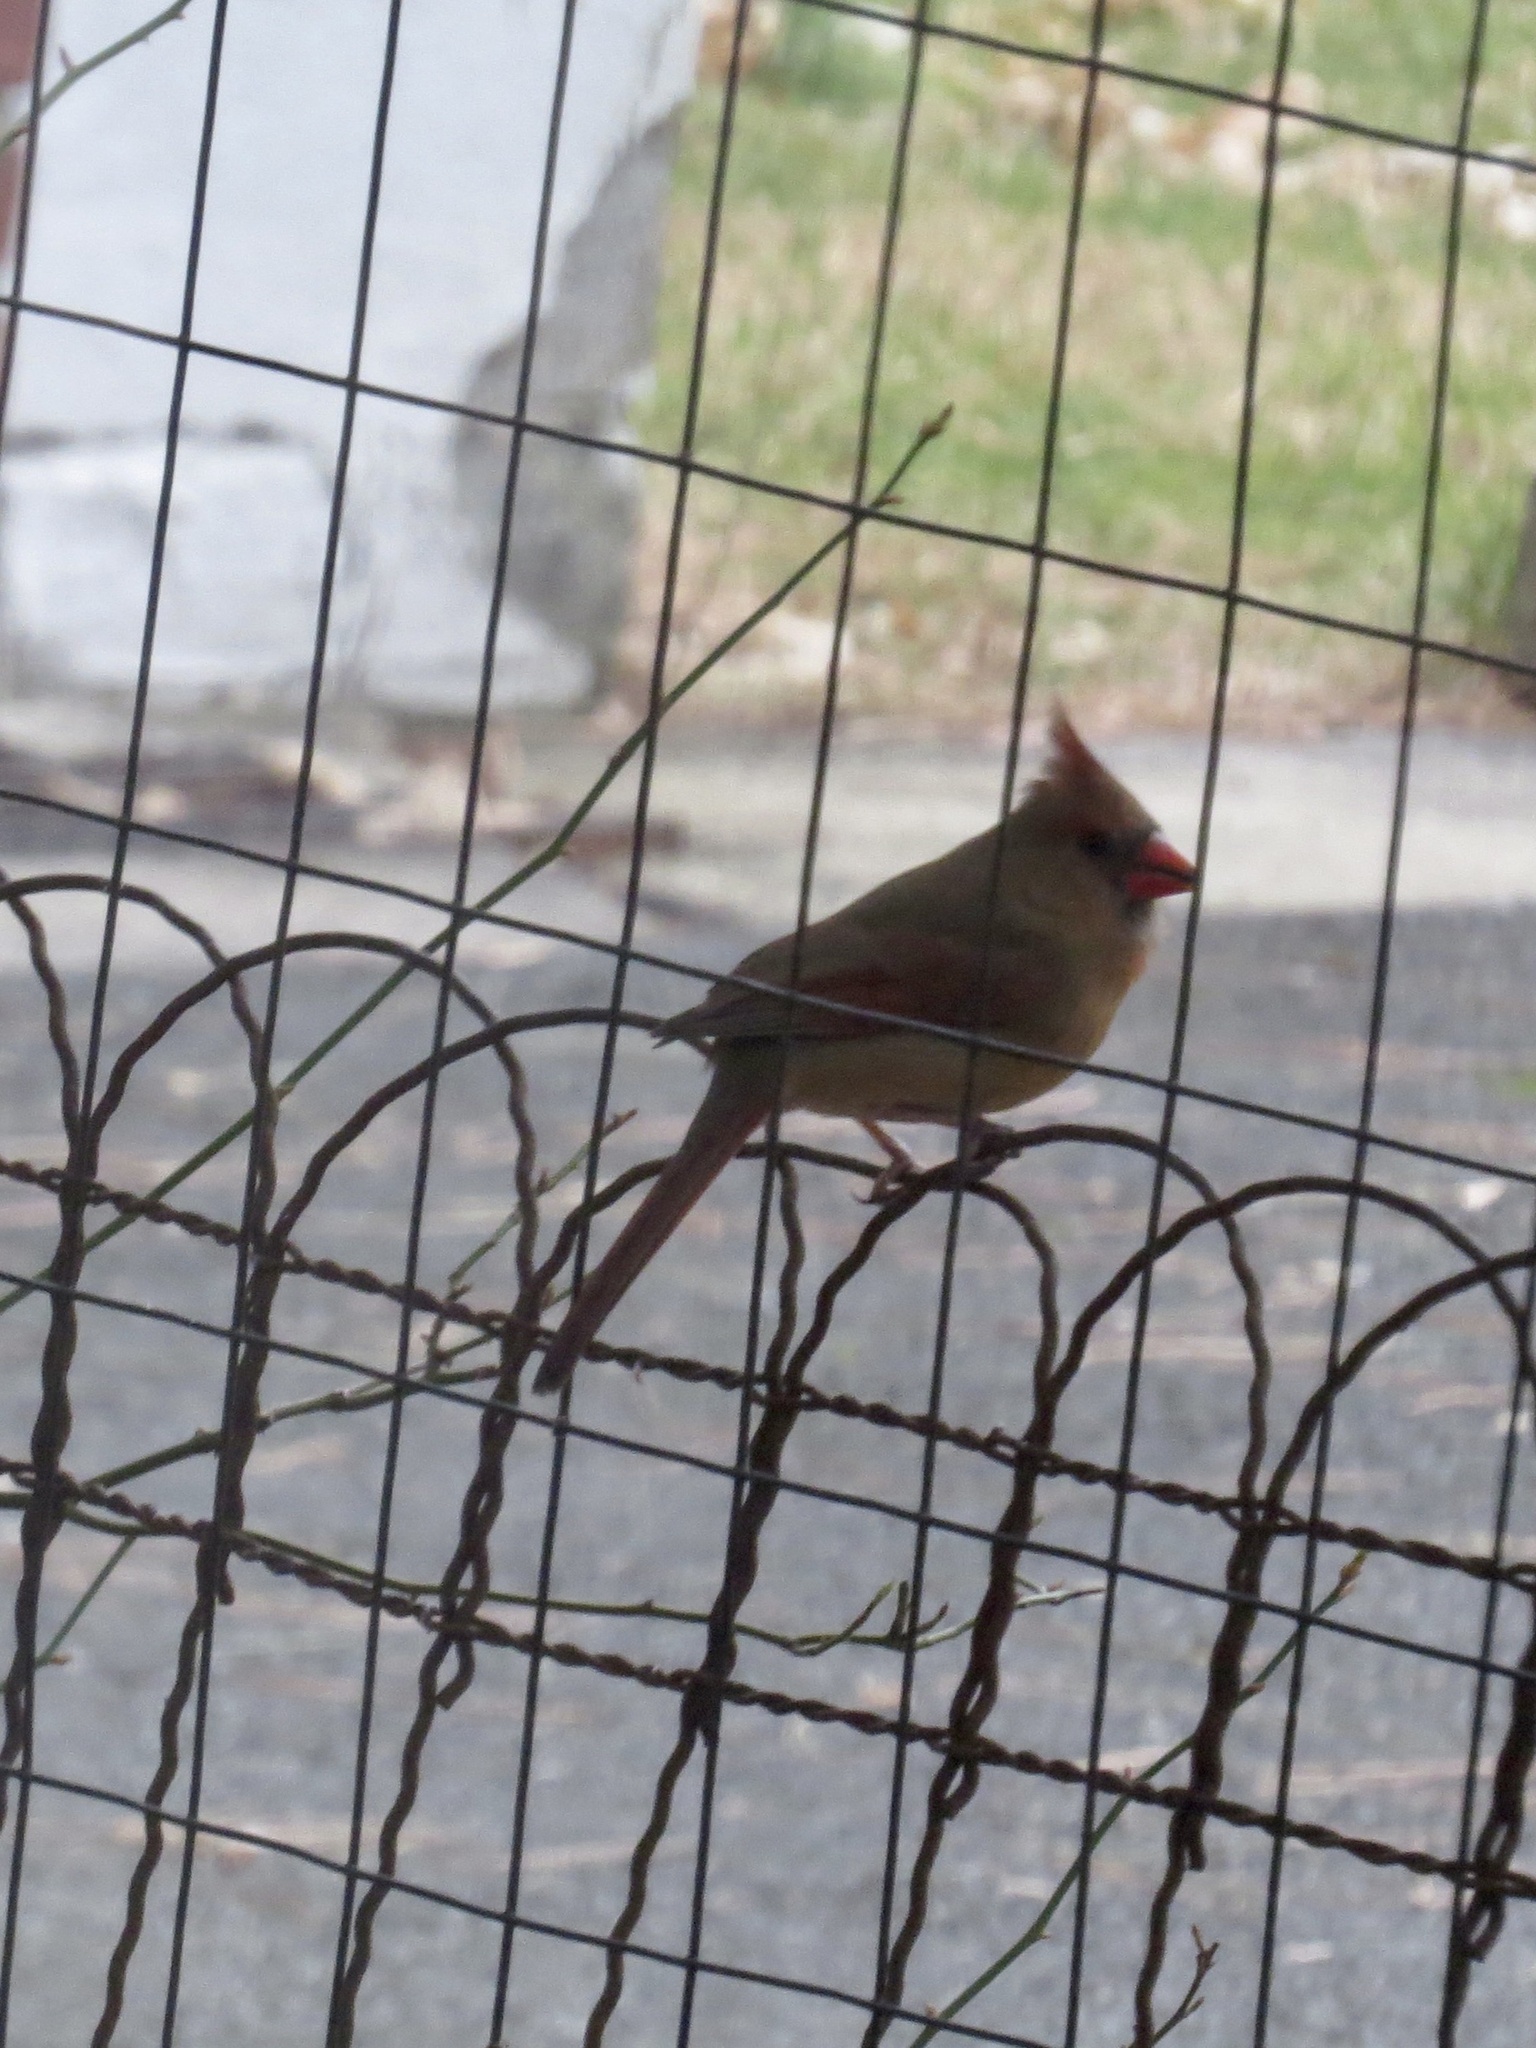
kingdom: Animalia
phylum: Chordata
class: Aves
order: Passeriformes
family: Cardinalidae
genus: Cardinalis
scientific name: Cardinalis cardinalis
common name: Northern cardinal
